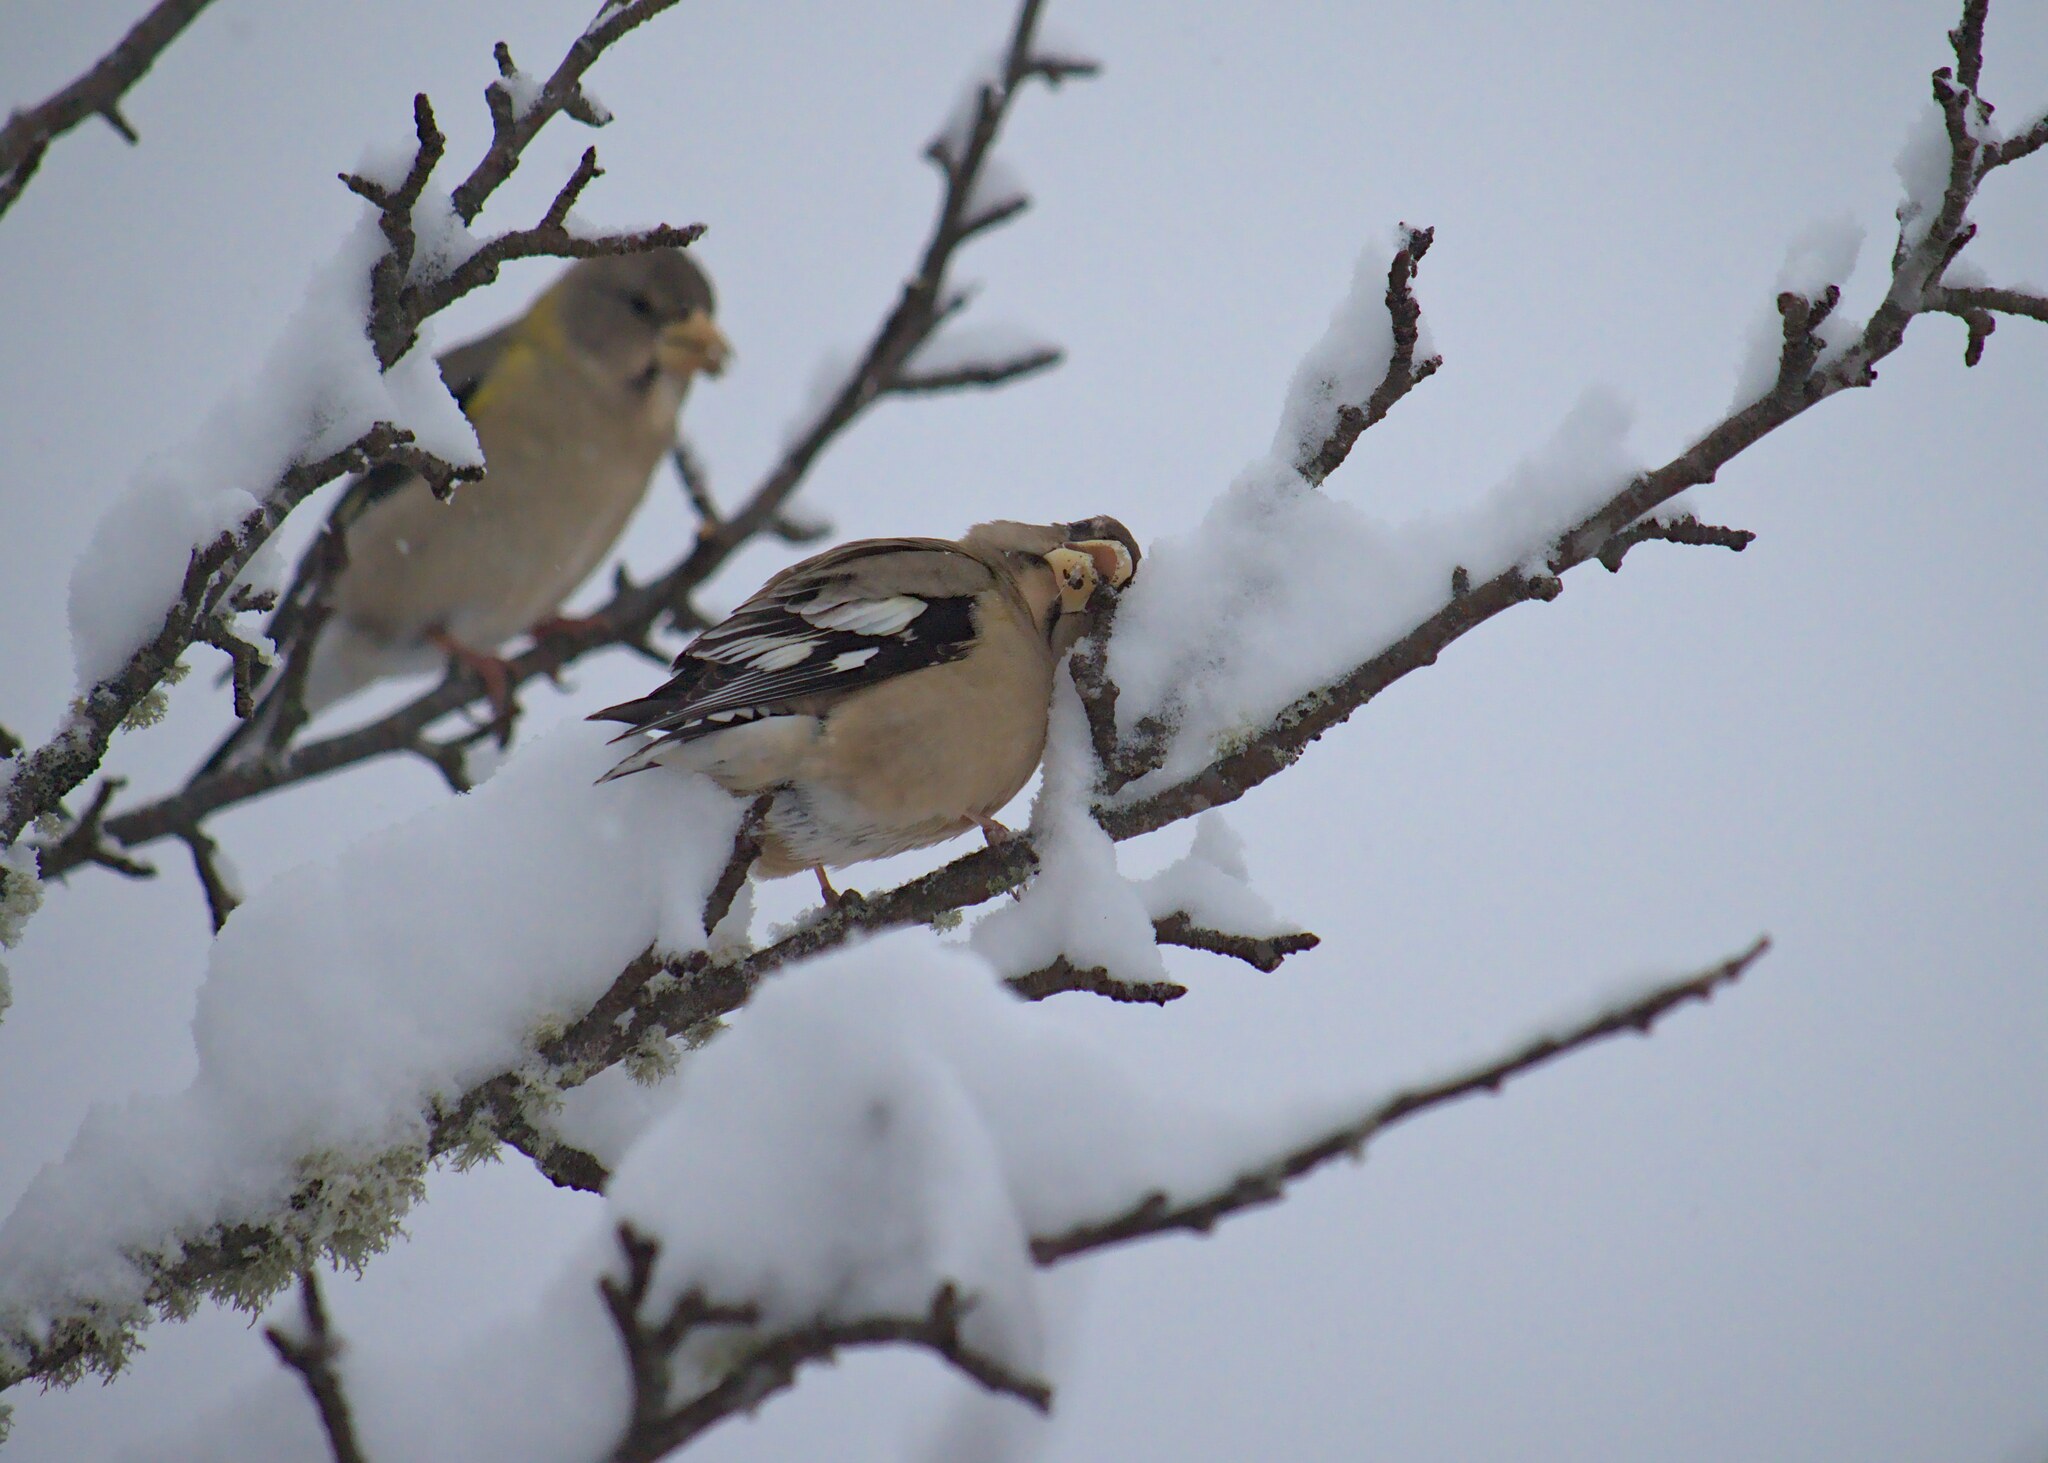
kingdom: Animalia
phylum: Chordata
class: Aves
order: Passeriformes
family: Fringillidae
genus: Hesperiphona
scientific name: Hesperiphona vespertina
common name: Evening grosbeak
